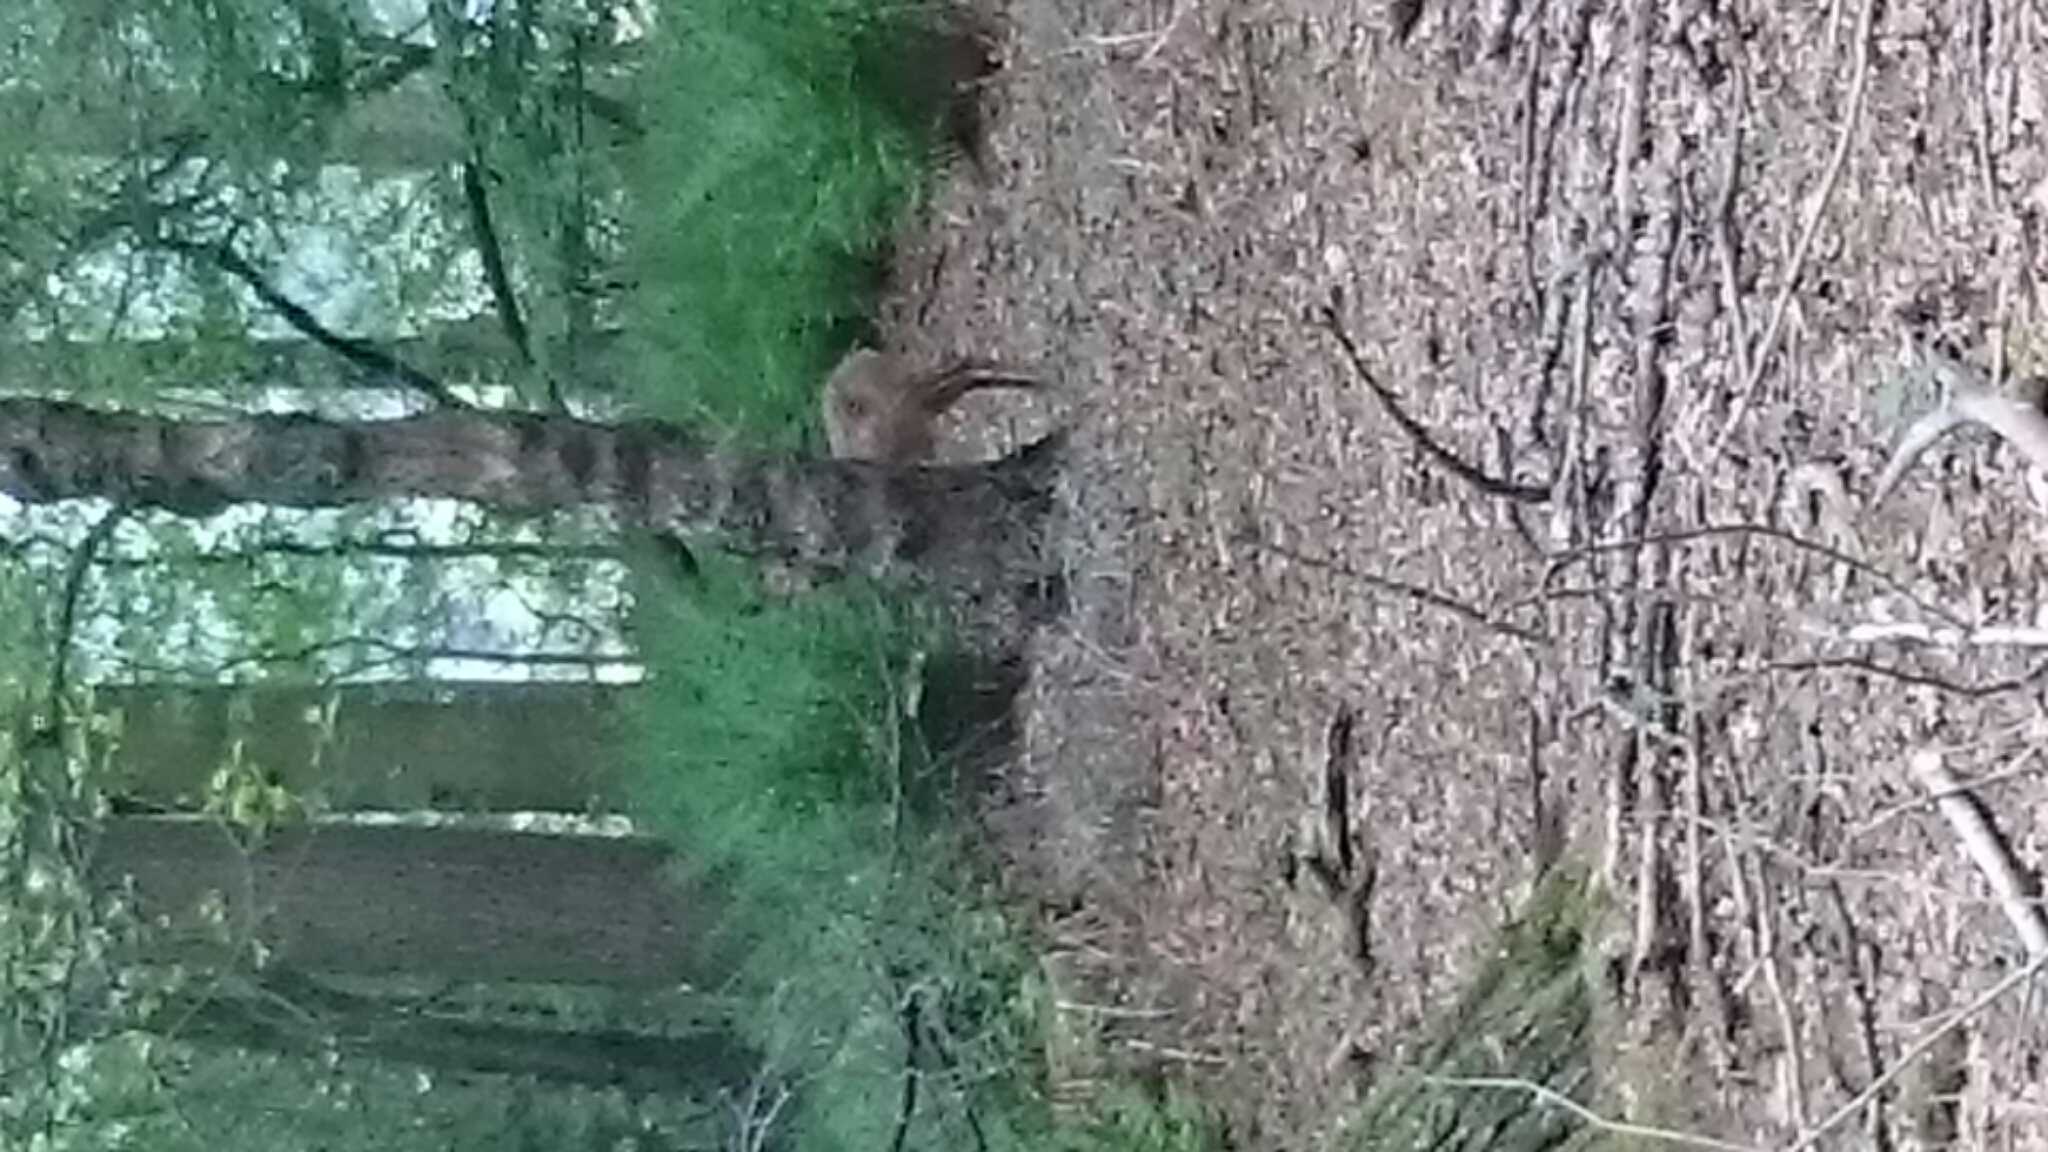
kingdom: Animalia
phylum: Chordata
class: Mammalia
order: Artiodactyla
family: Cervidae
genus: Capreolus
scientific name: Capreolus capreolus
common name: Western roe deer
